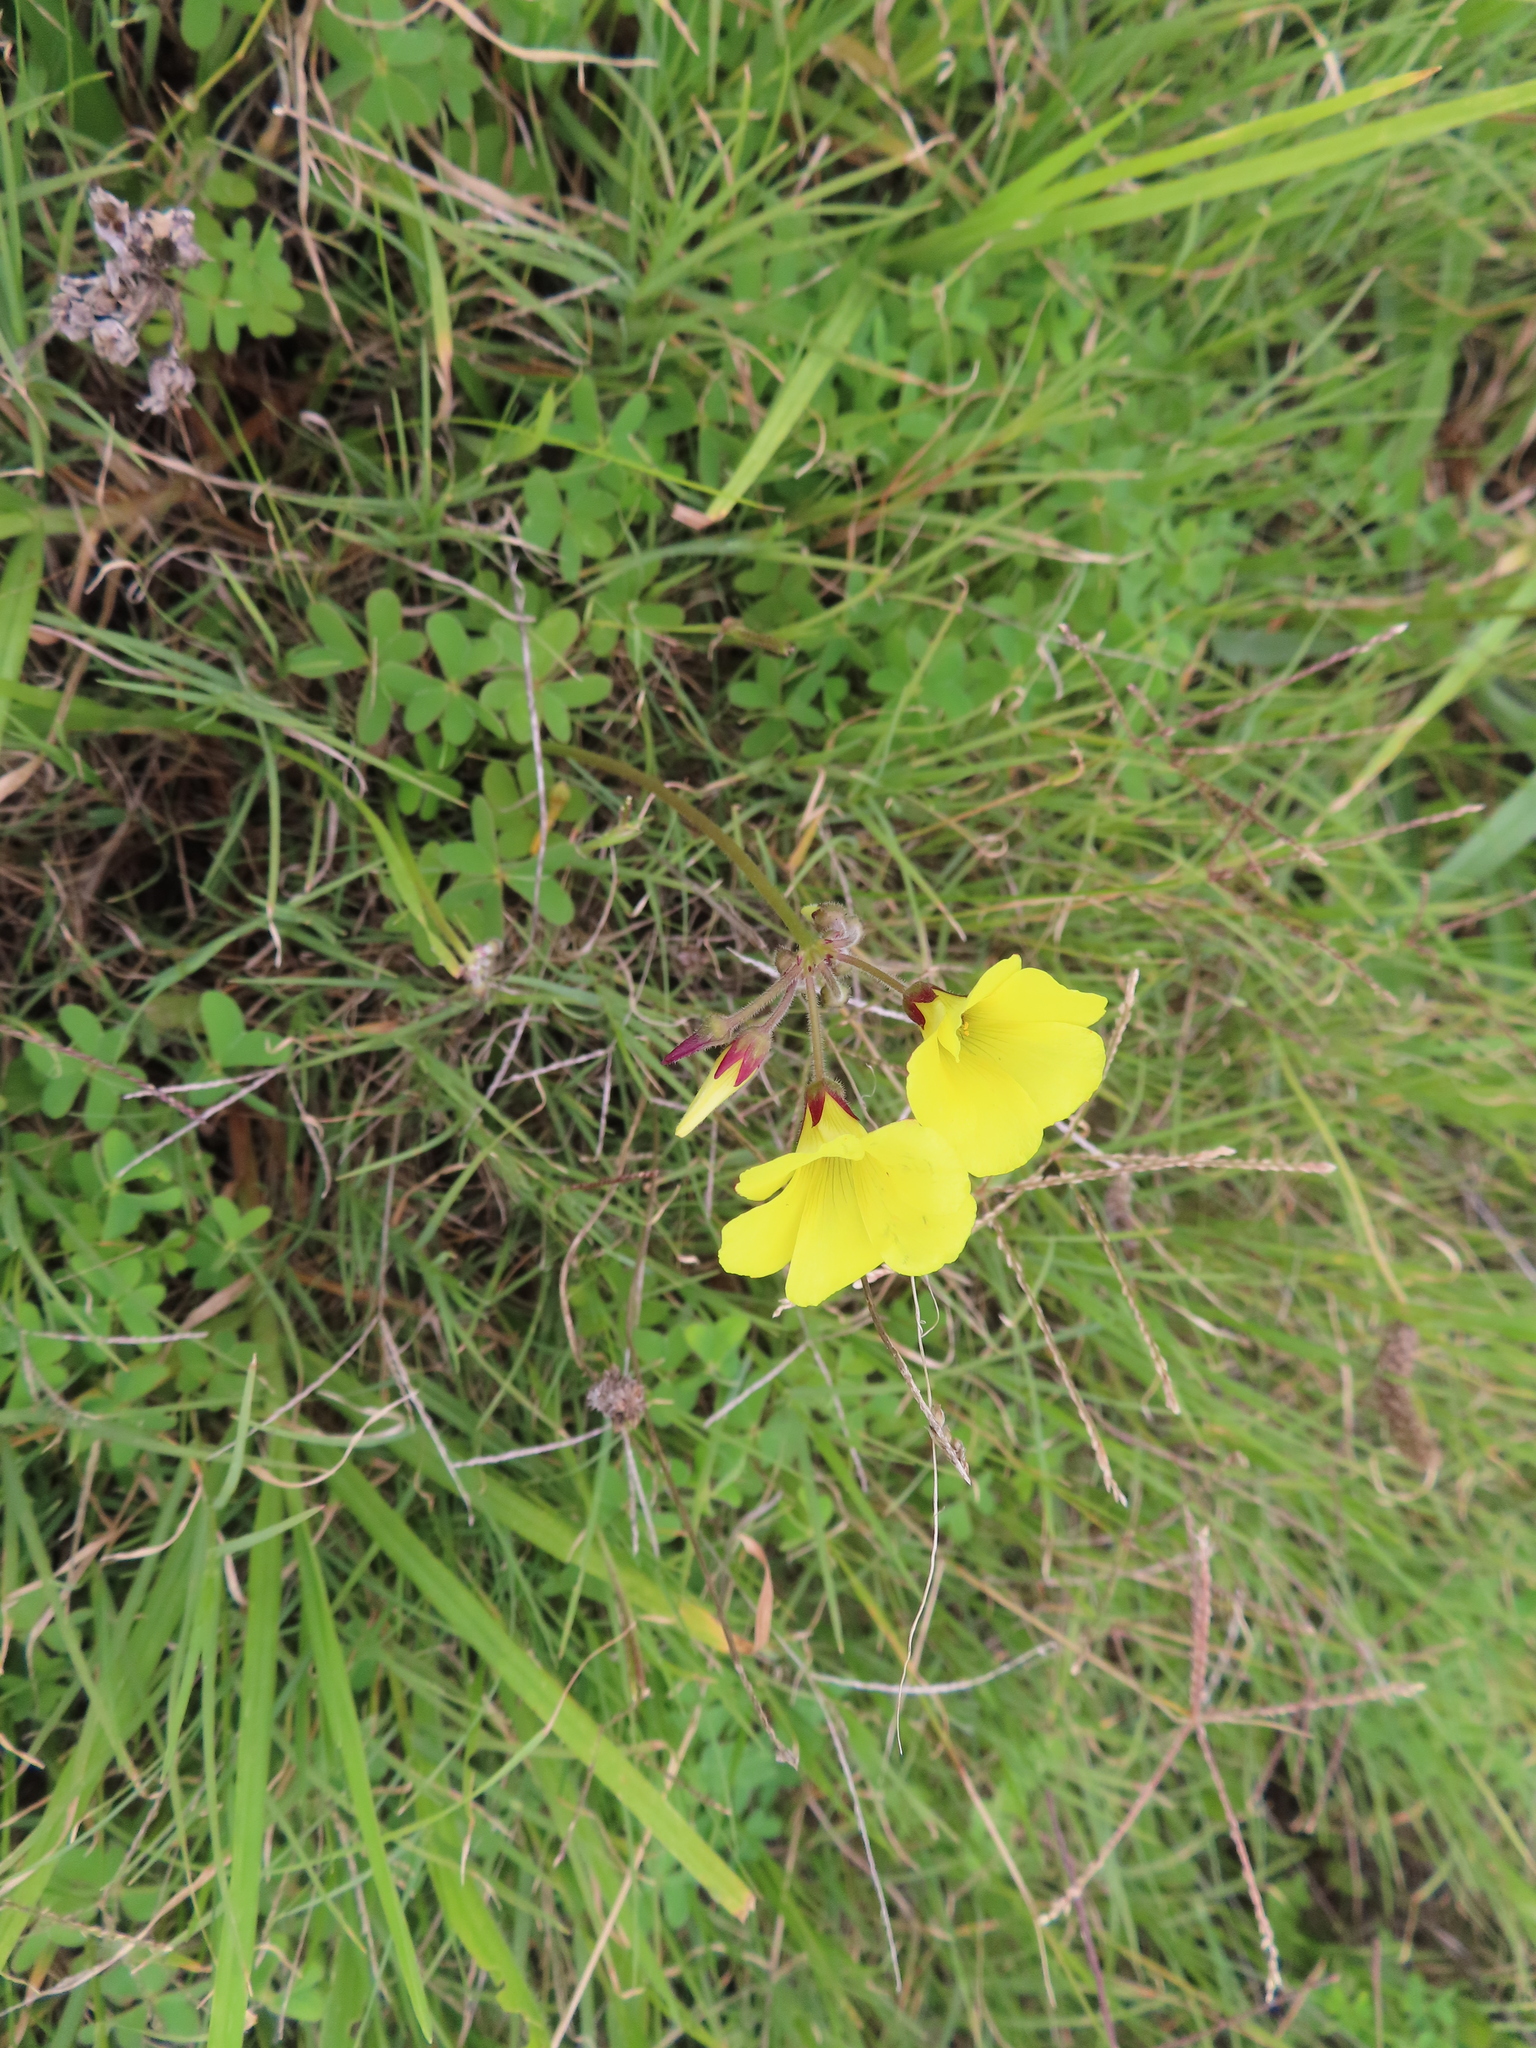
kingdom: Plantae
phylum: Tracheophyta
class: Magnoliopsida
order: Oxalidales
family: Oxalidaceae
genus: Oxalis
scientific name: Oxalis pes-caprae
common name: Bermuda-buttercup
